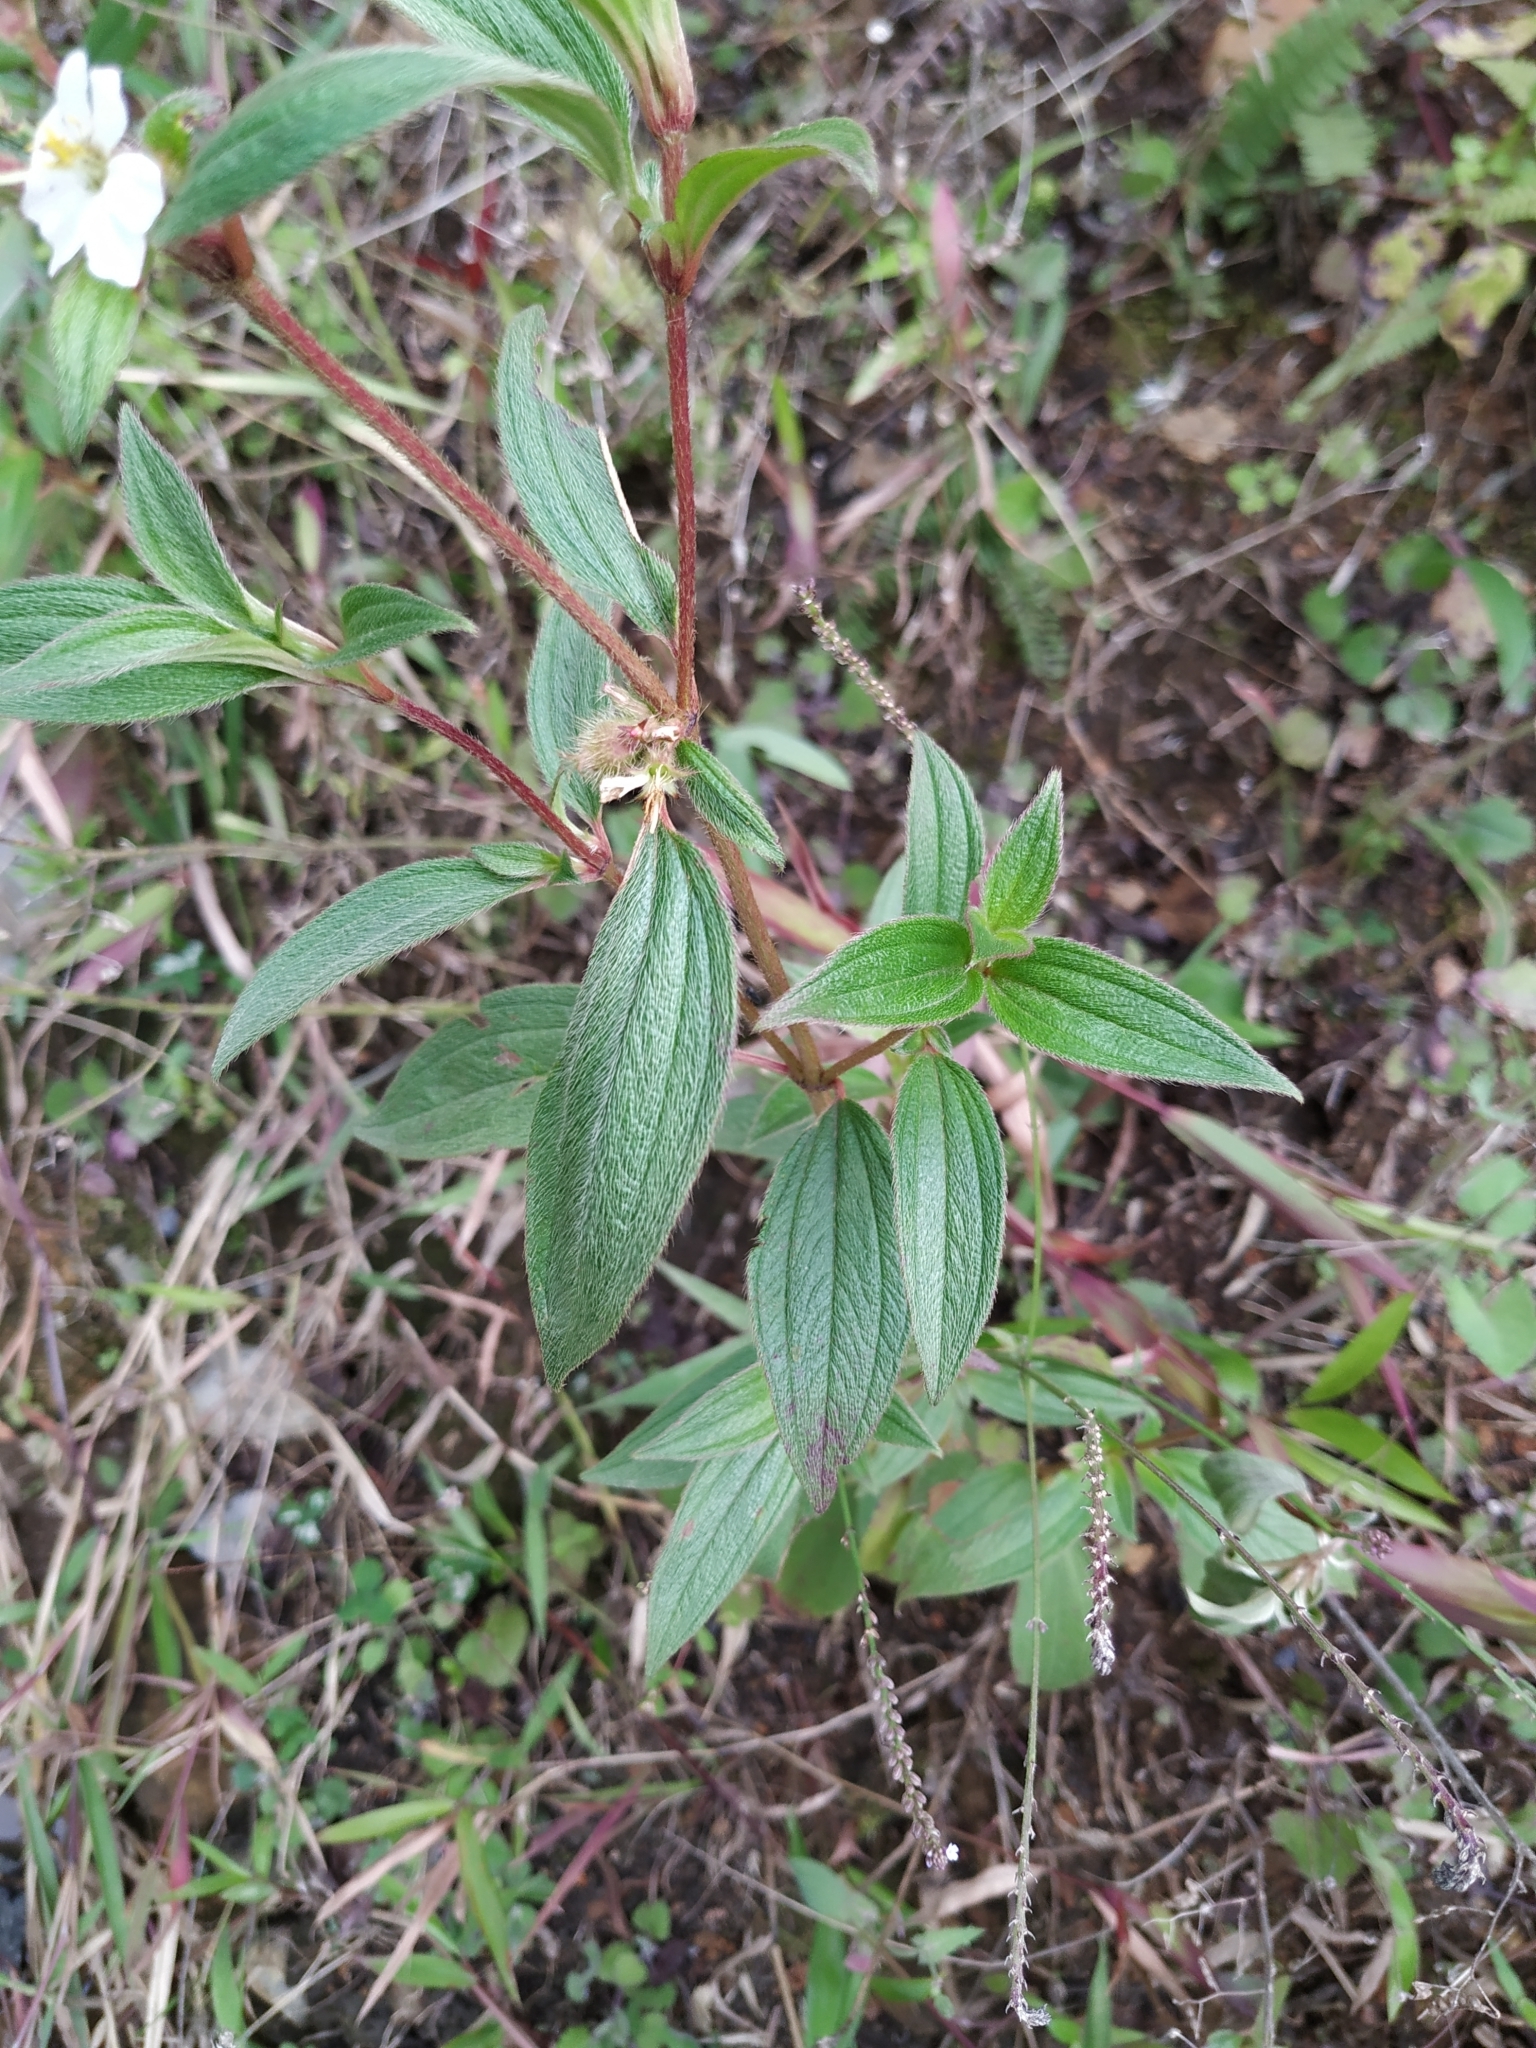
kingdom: Plantae
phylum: Tracheophyta
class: Magnoliopsida
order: Myrtales
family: Melastomataceae
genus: Chaetogastra
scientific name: Chaetogastra longifolia
